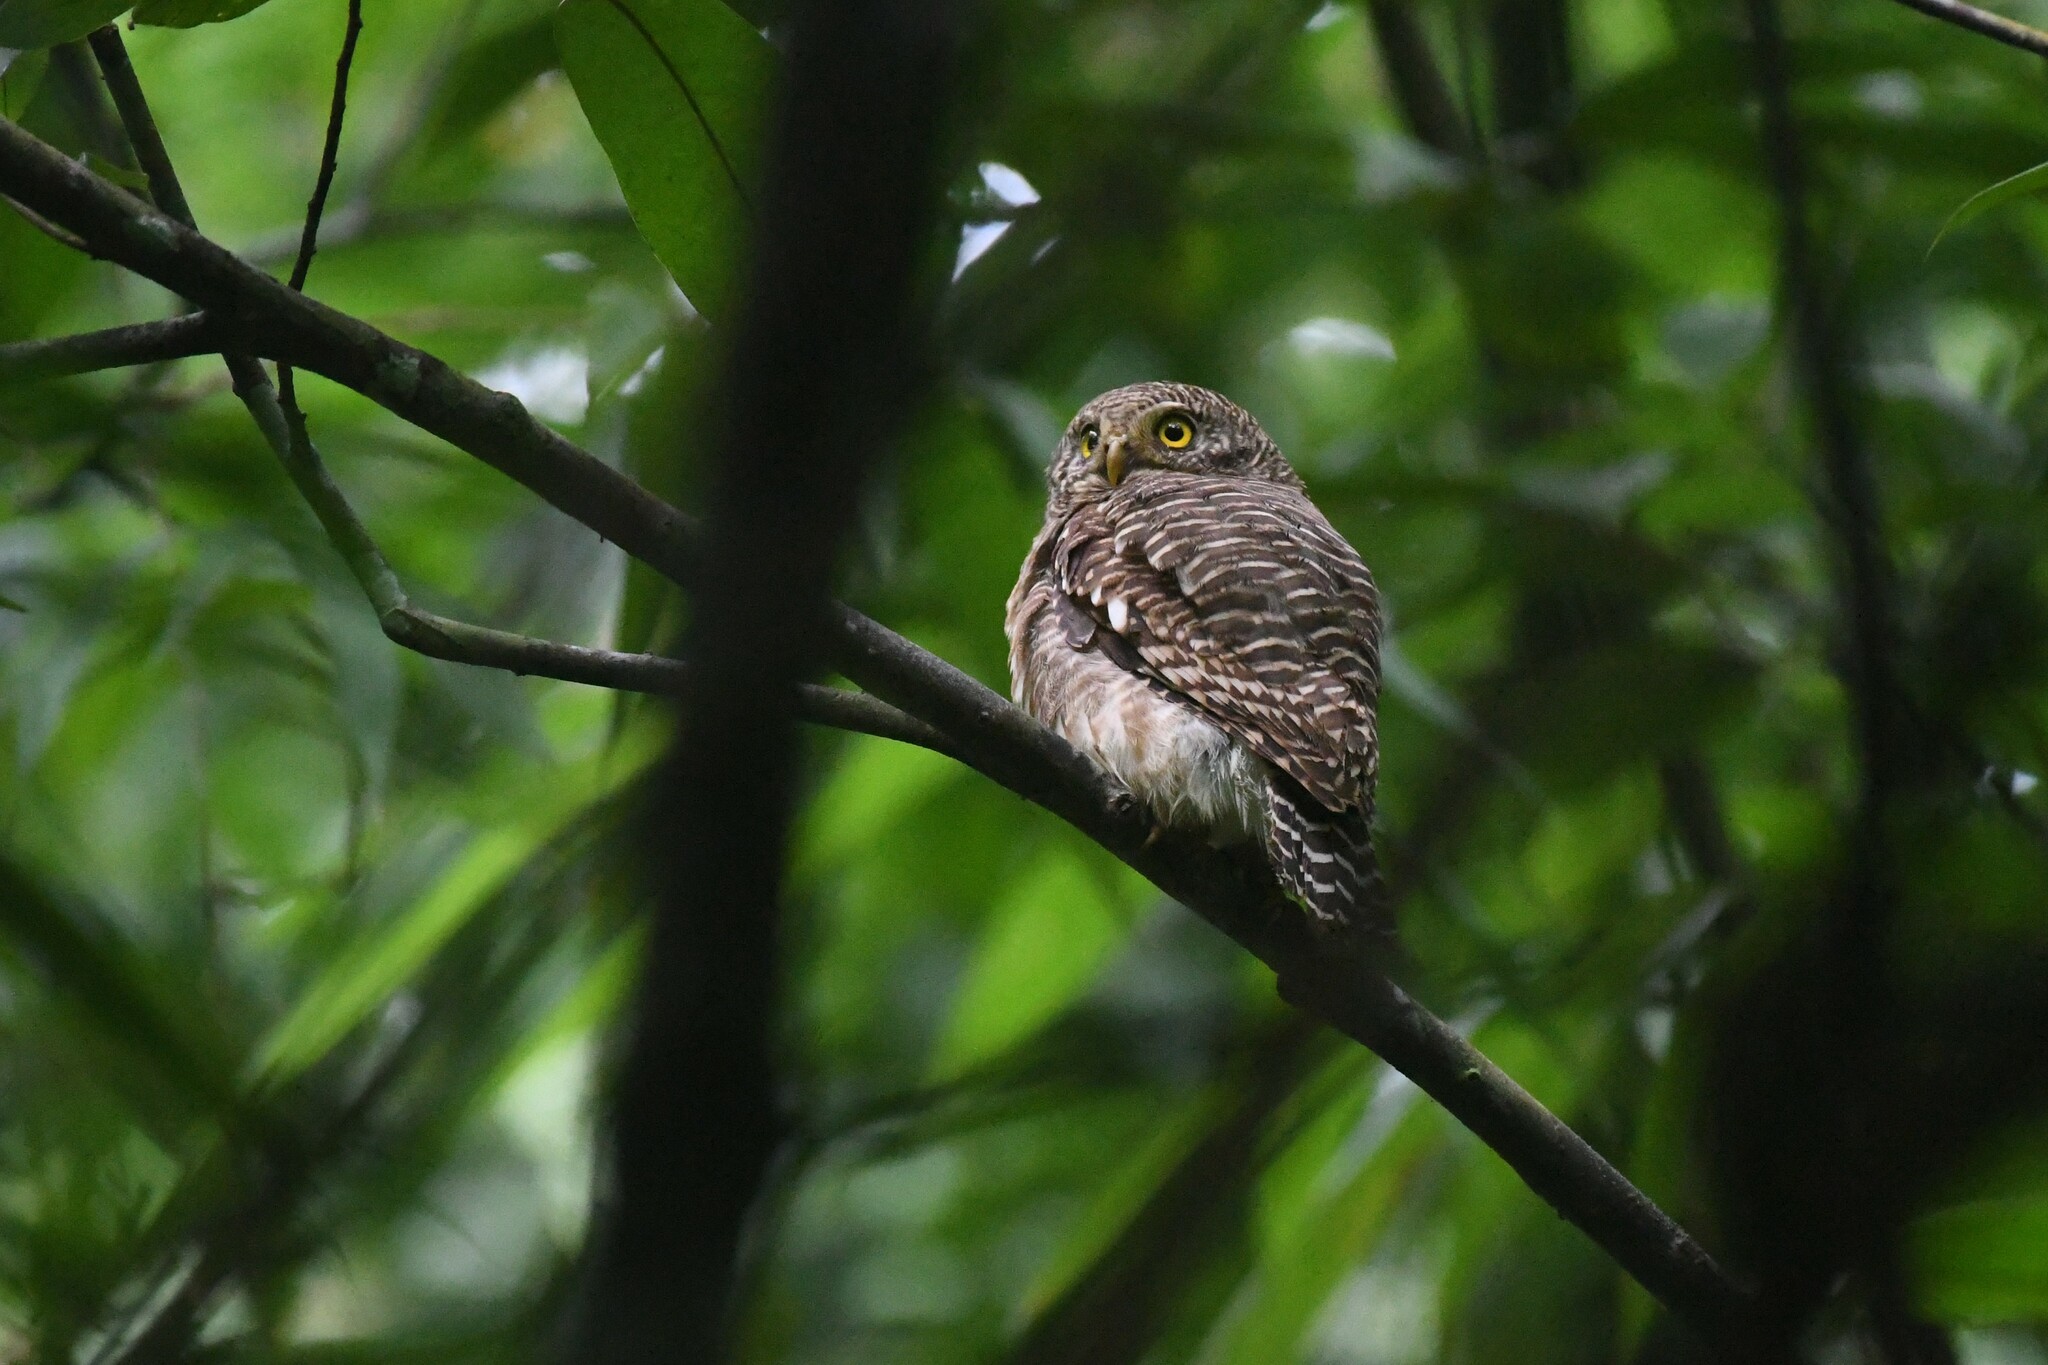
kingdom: Animalia
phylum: Chordata
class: Aves
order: Strigiformes
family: Strigidae
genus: Glaucidium
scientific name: Glaucidium cuculoides
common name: Asian barred owlet
